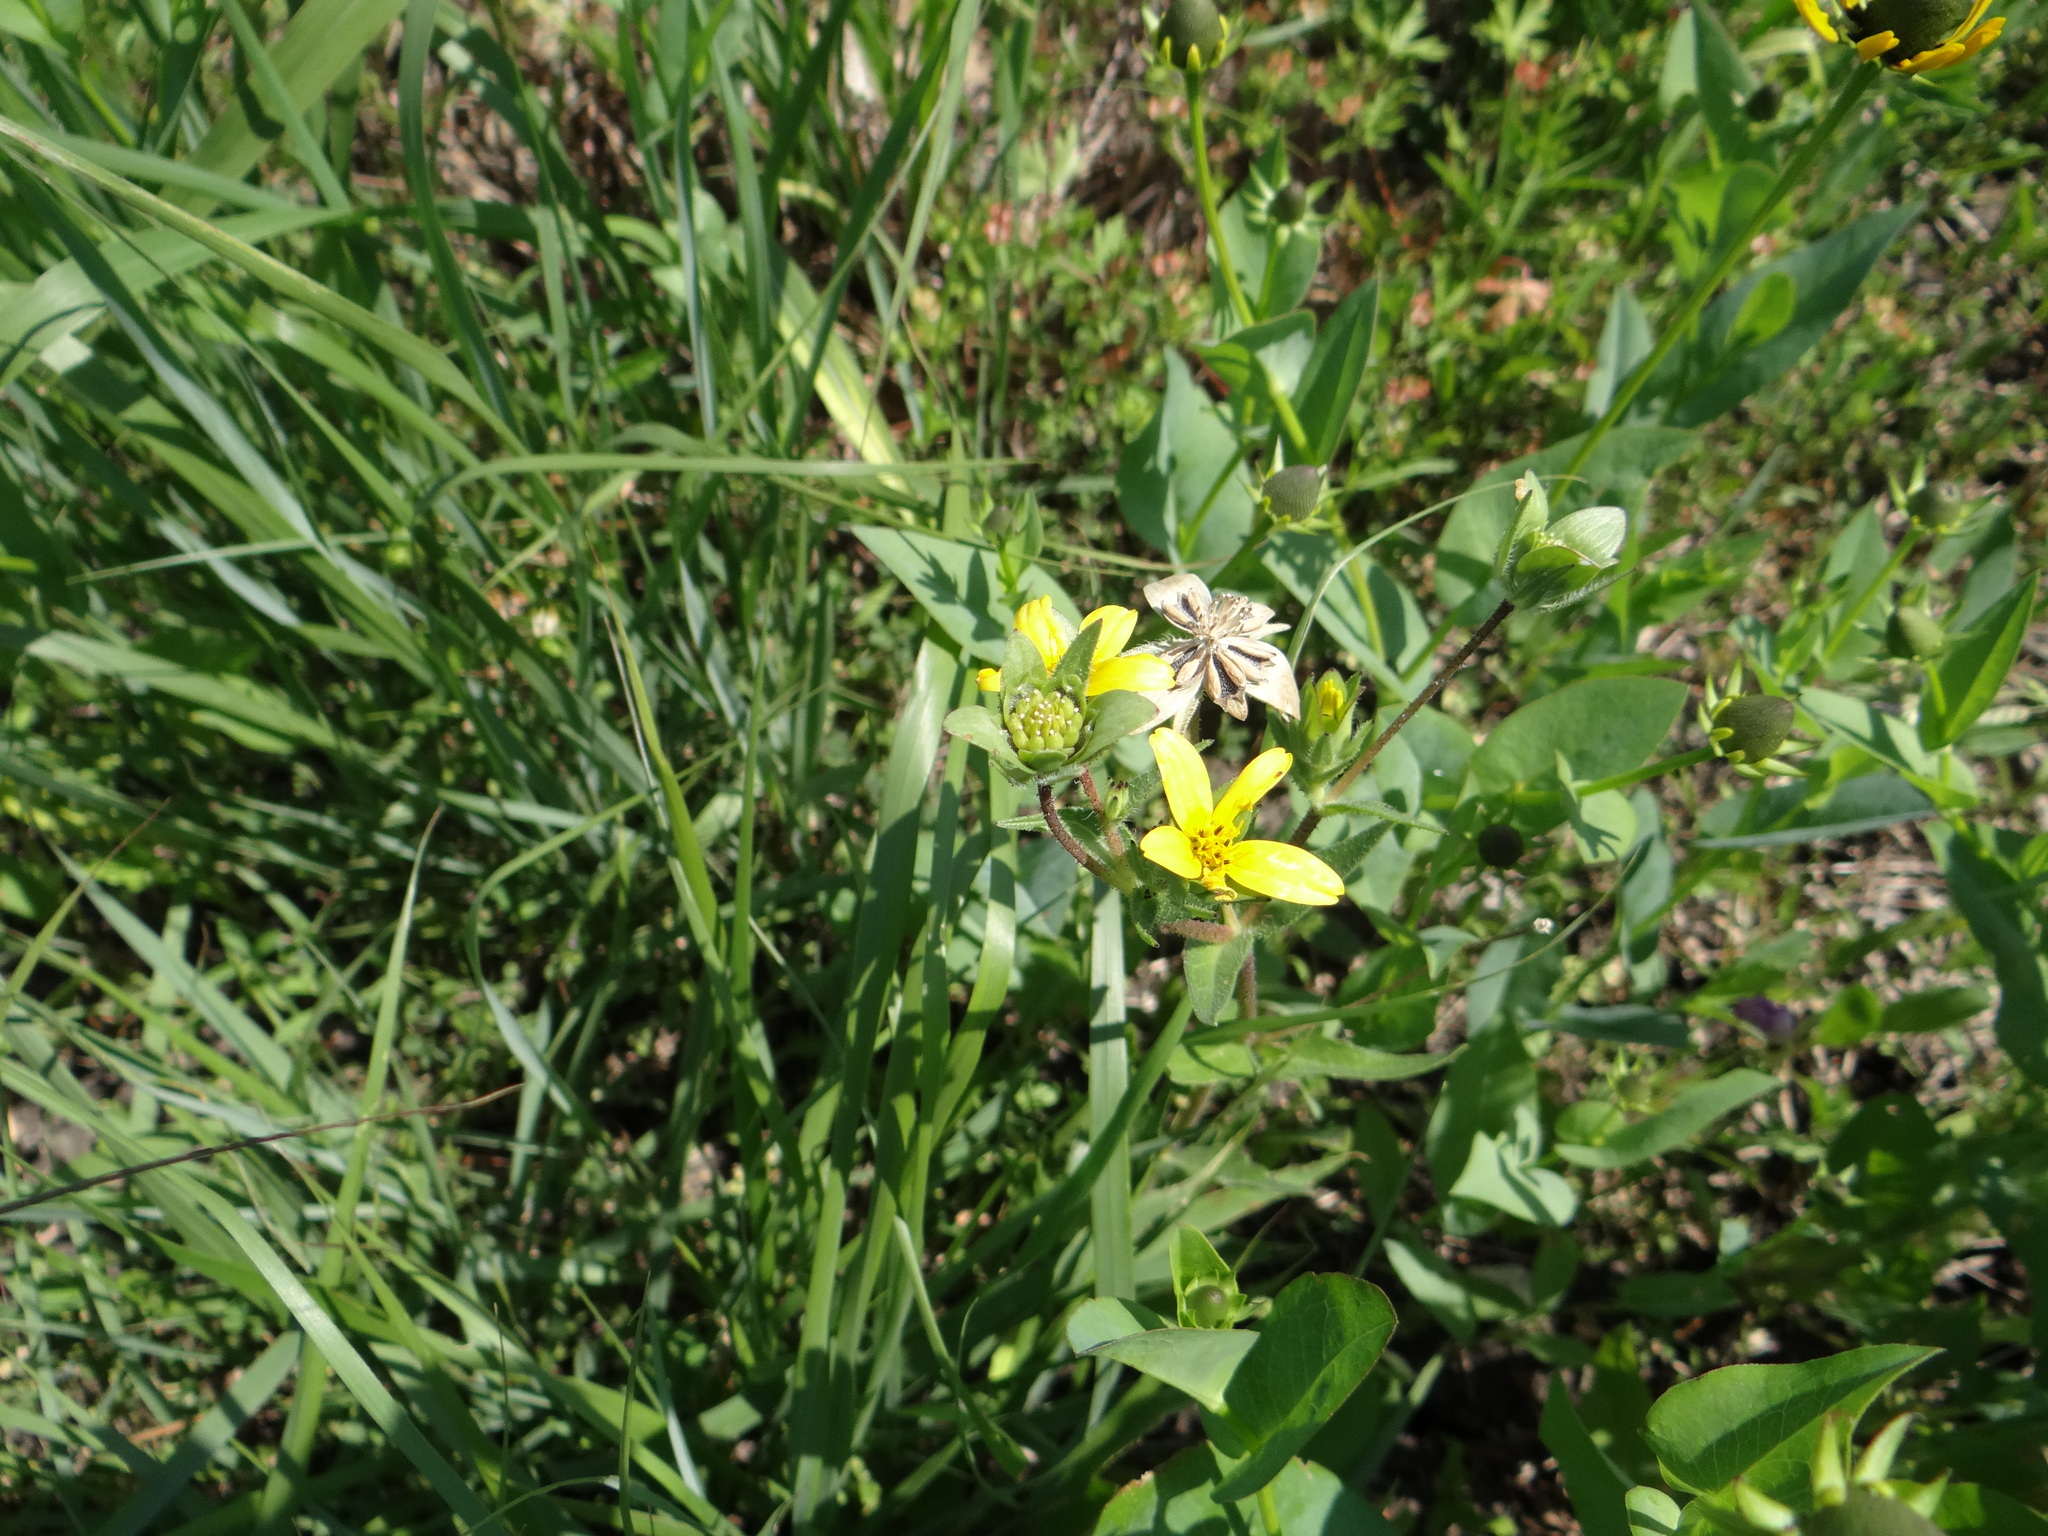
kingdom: Plantae
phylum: Tracheophyta
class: Magnoliopsida
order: Asterales
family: Asteraceae
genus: Lindheimera
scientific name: Lindheimera texana
